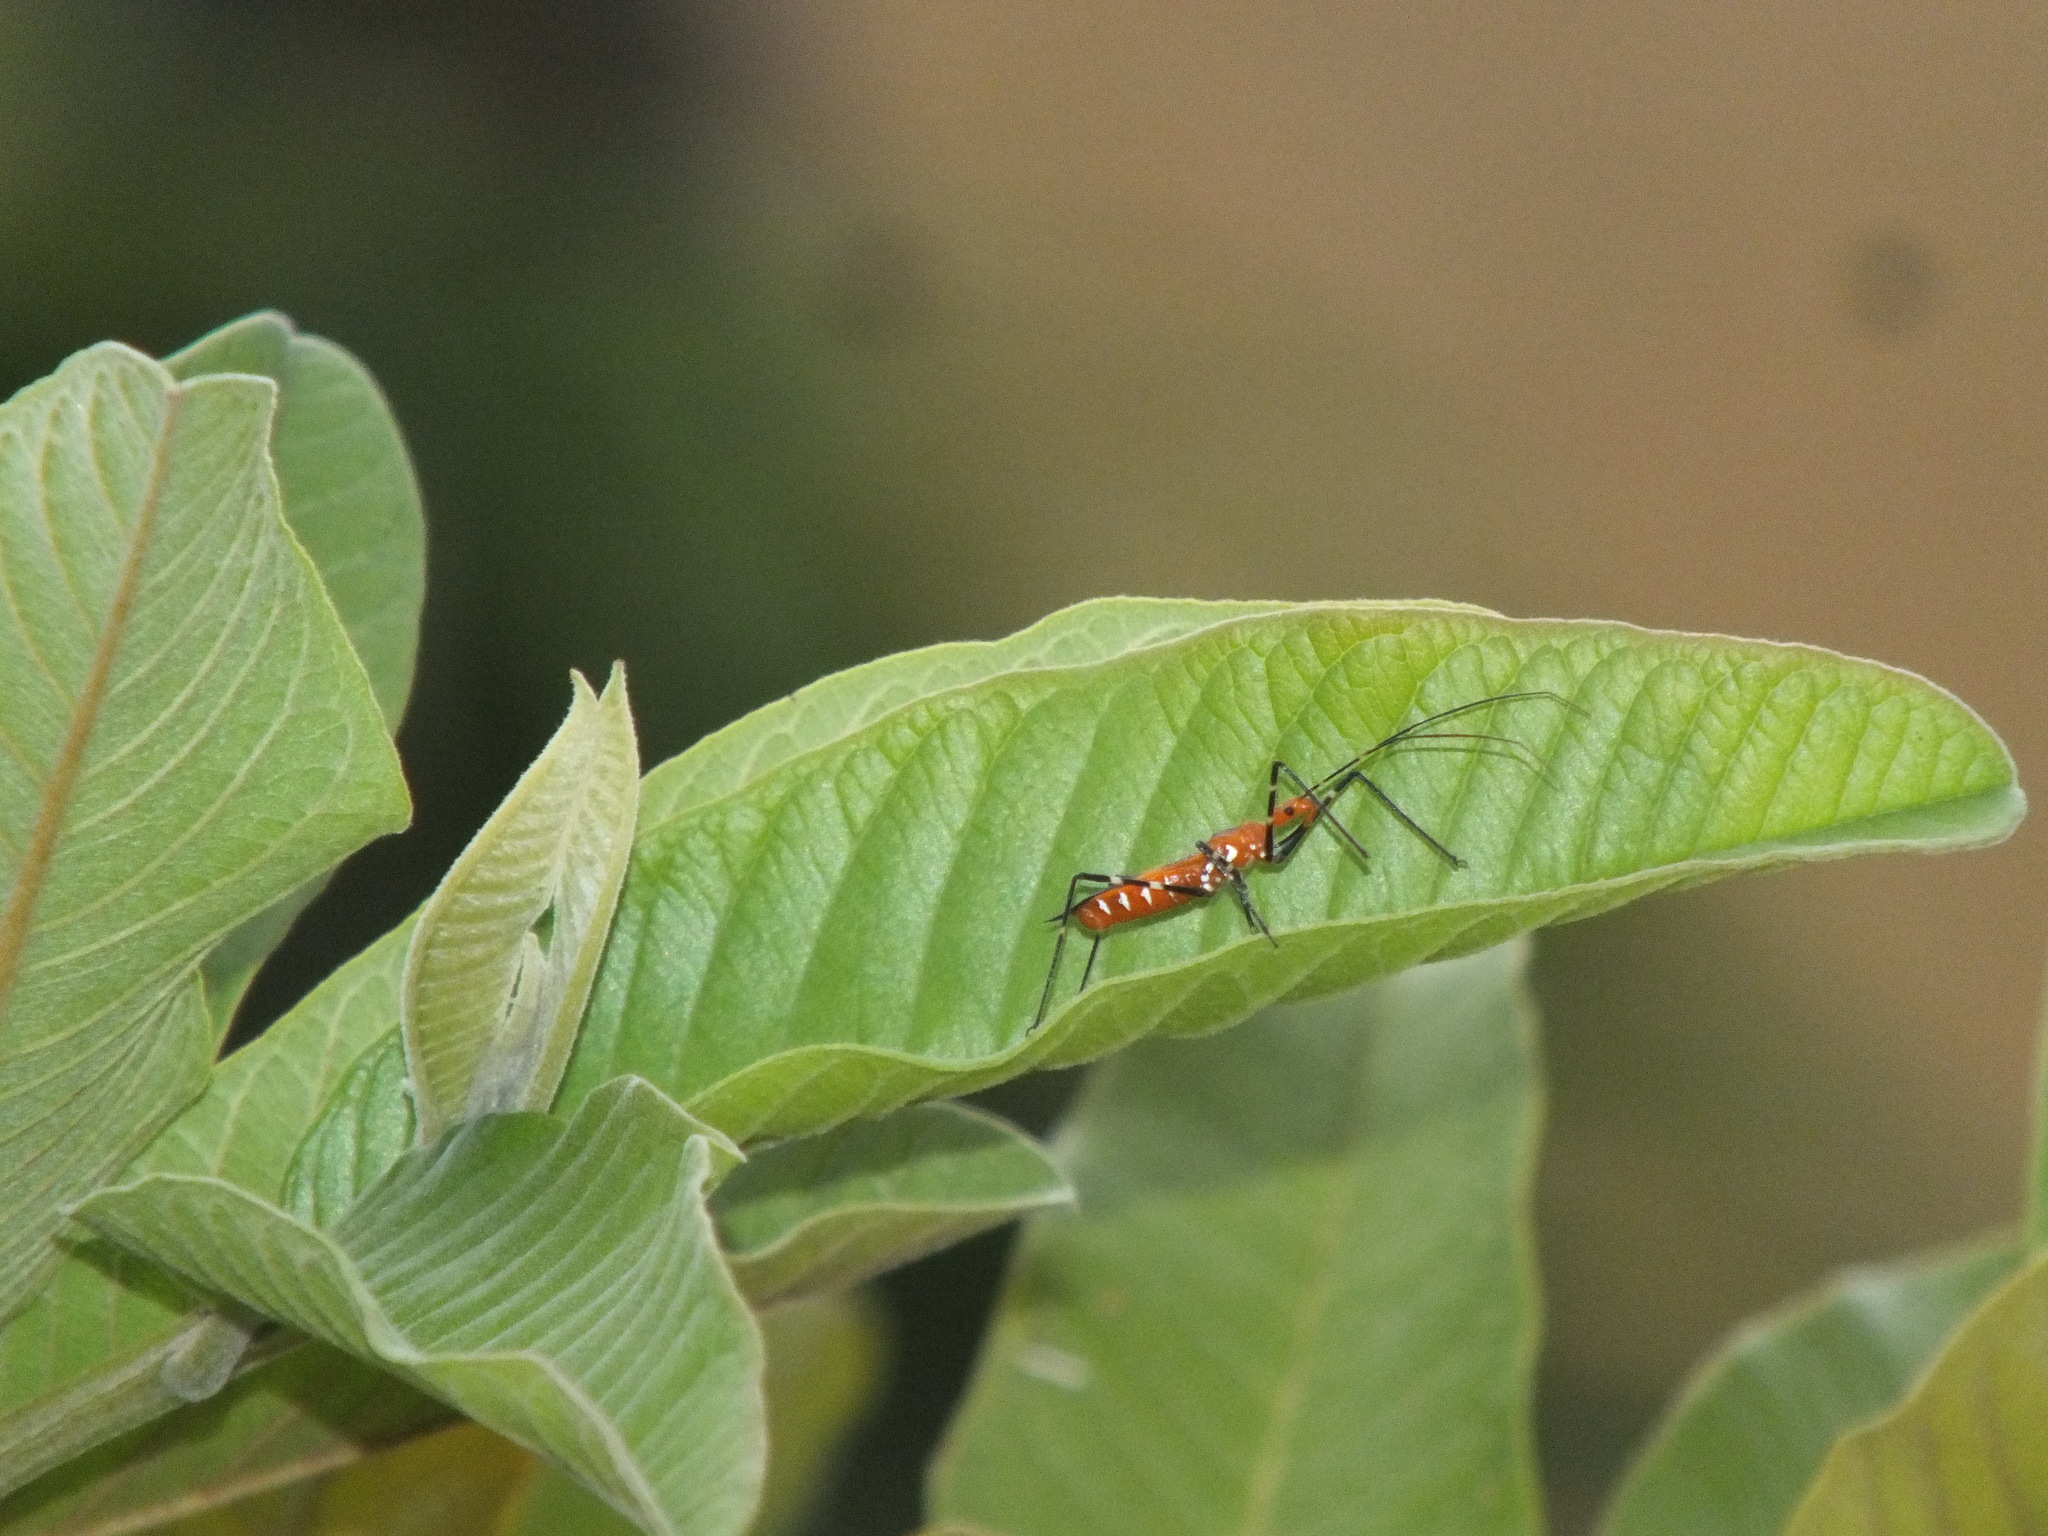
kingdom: Animalia
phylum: Arthropoda
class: Insecta
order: Hemiptera
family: Reduviidae
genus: Zelus
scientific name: Zelus longipes
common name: Milkweed assassin bug
